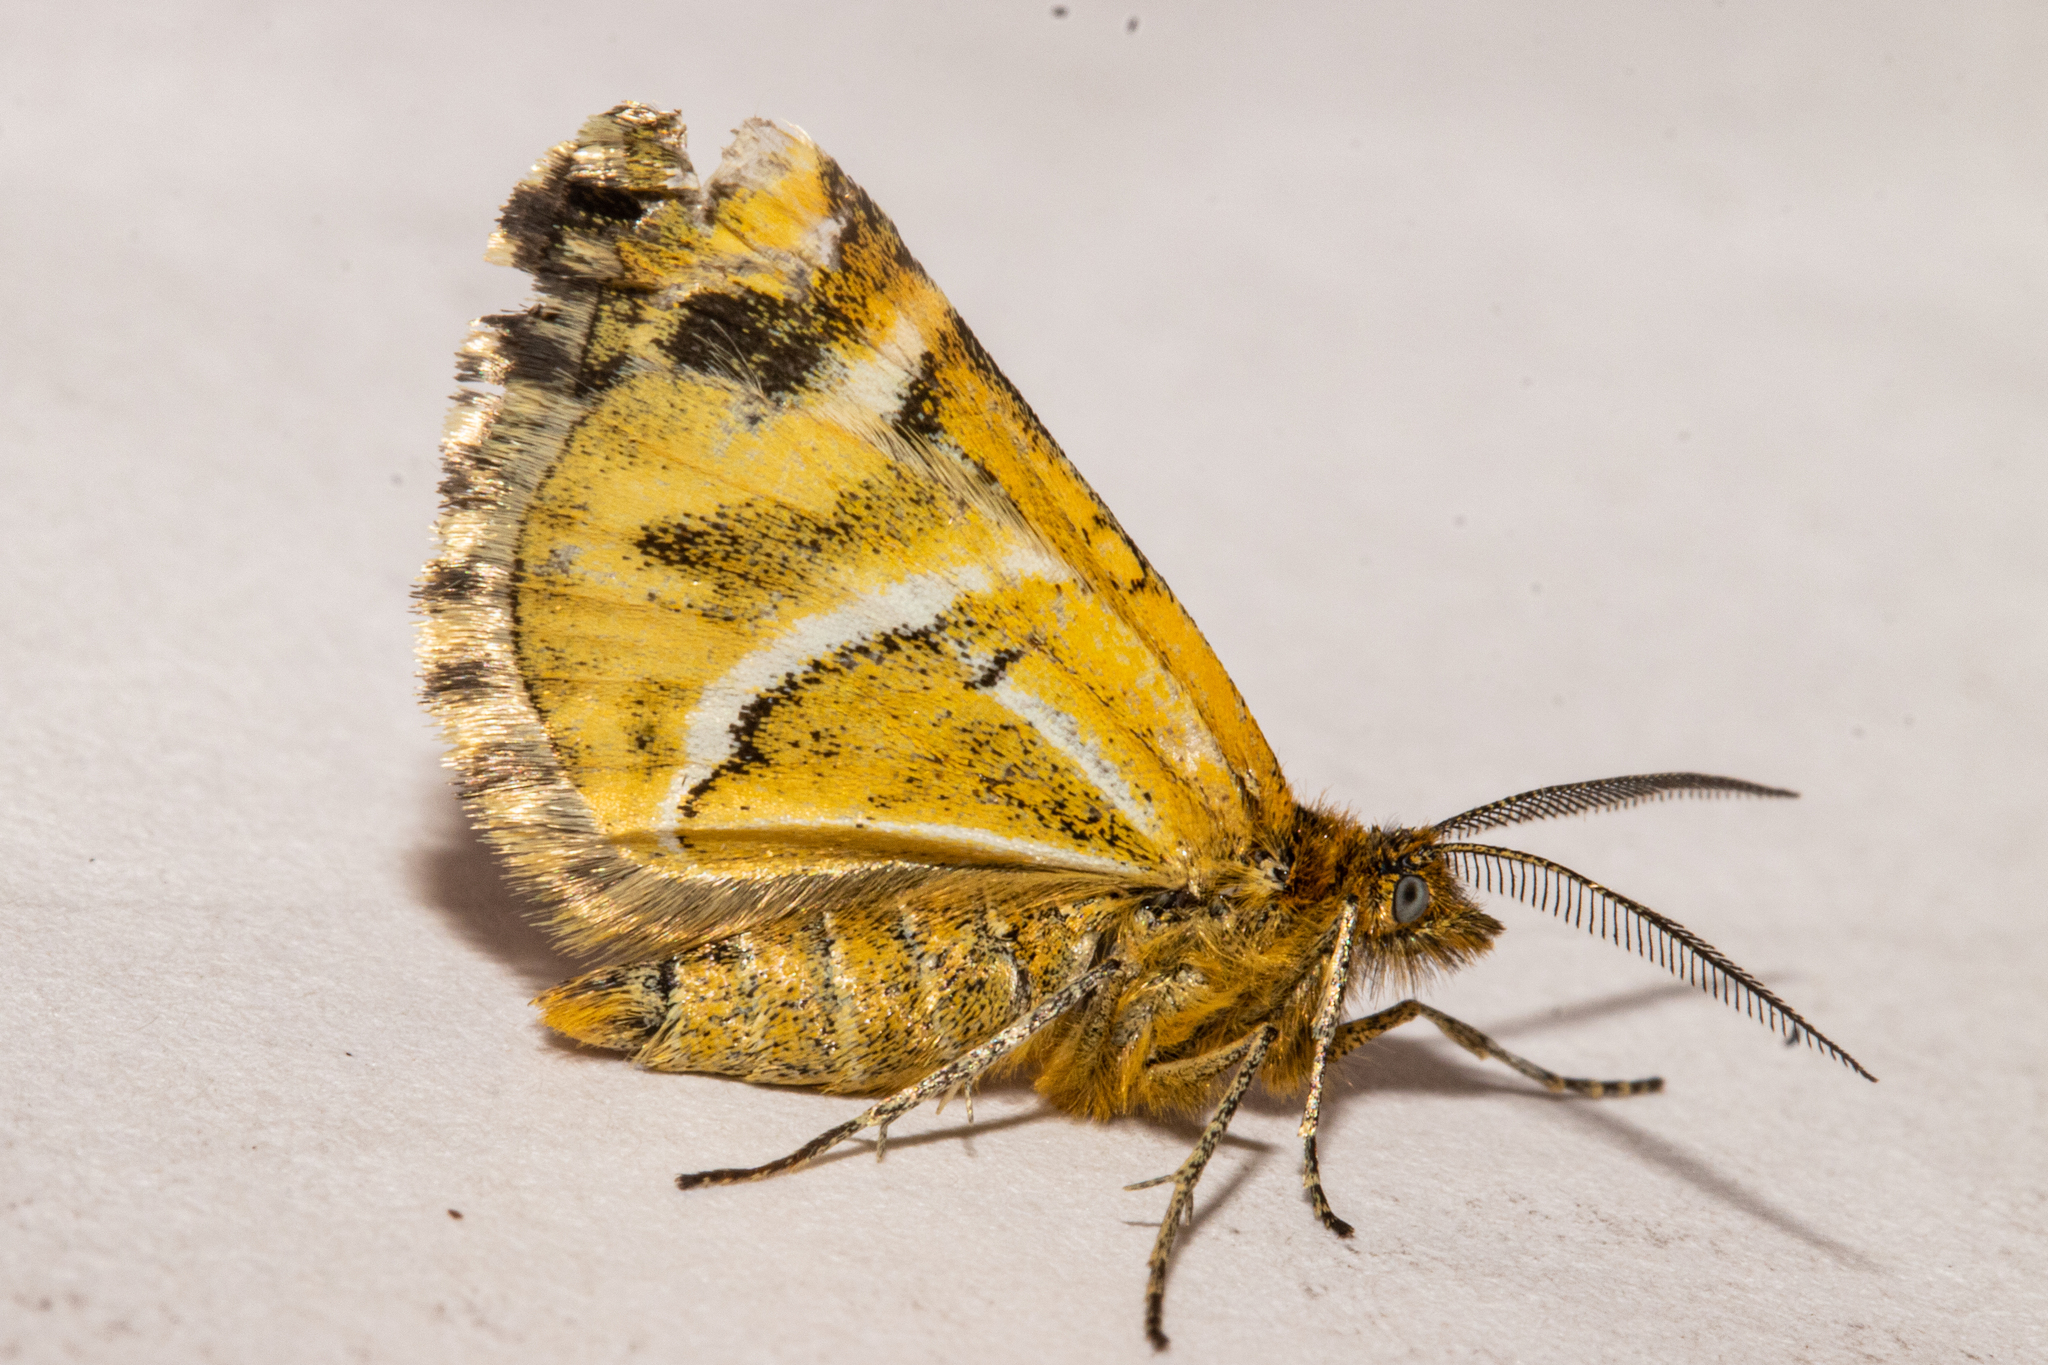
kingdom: Animalia
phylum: Arthropoda
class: Insecta
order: Lepidoptera
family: Geometridae
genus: Notoreas
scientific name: Notoreas paradelpha
